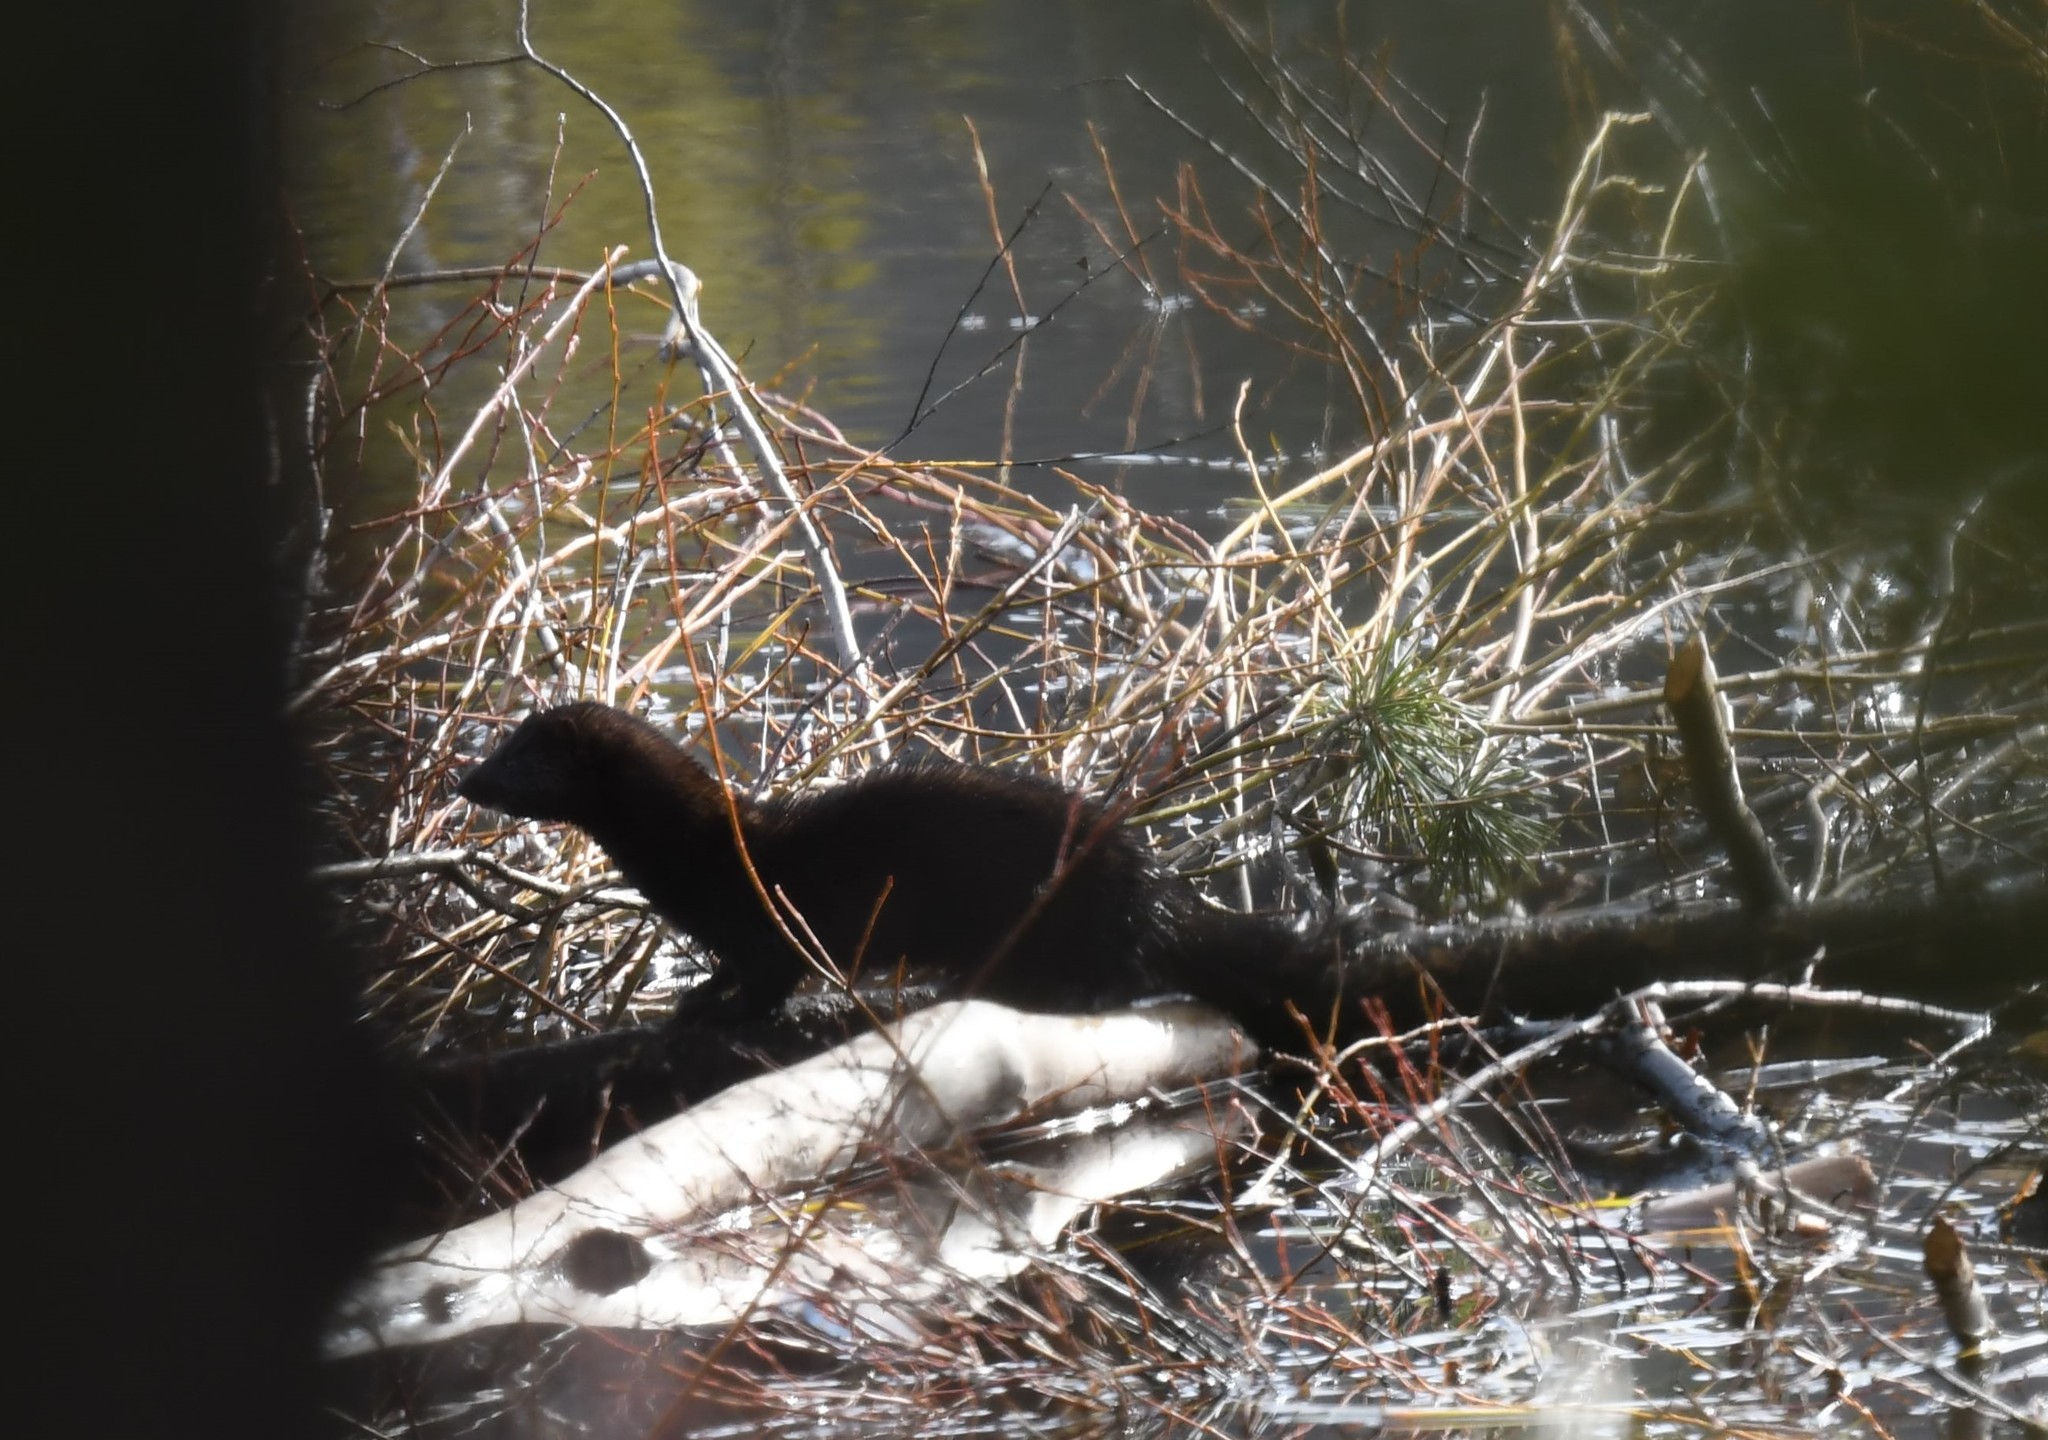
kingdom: Animalia
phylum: Chordata
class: Mammalia
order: Carnivora
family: Mustelidae
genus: Mustela
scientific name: Mustela
